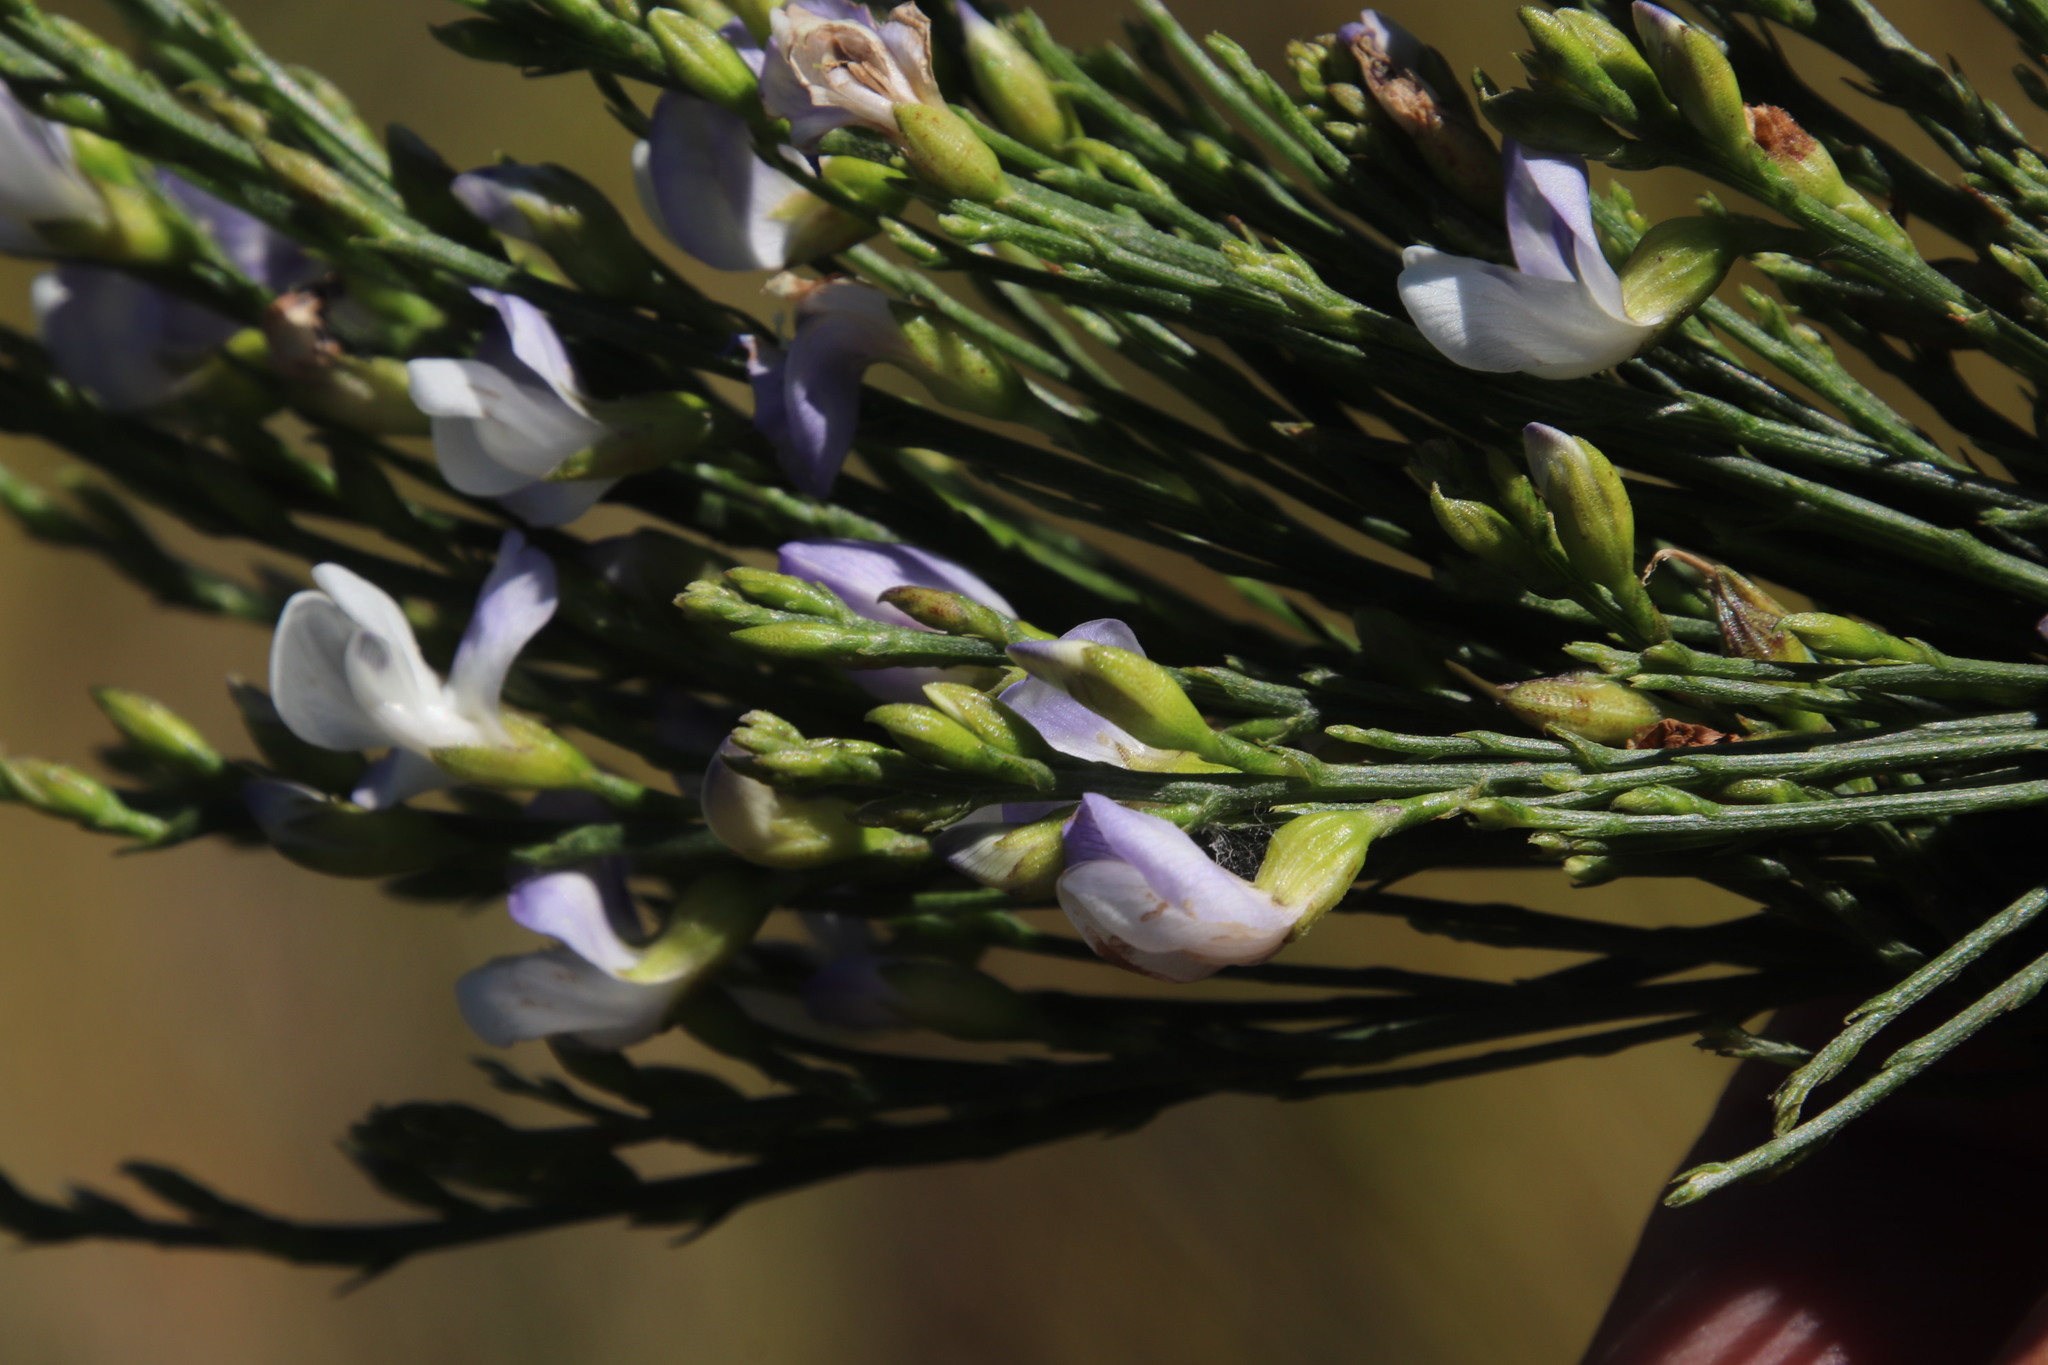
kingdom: Plantae
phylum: Tracheophyta
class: Magnoliopsida
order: Fabales
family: Fabaceae
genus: Psoralea
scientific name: Psoralea usitata
